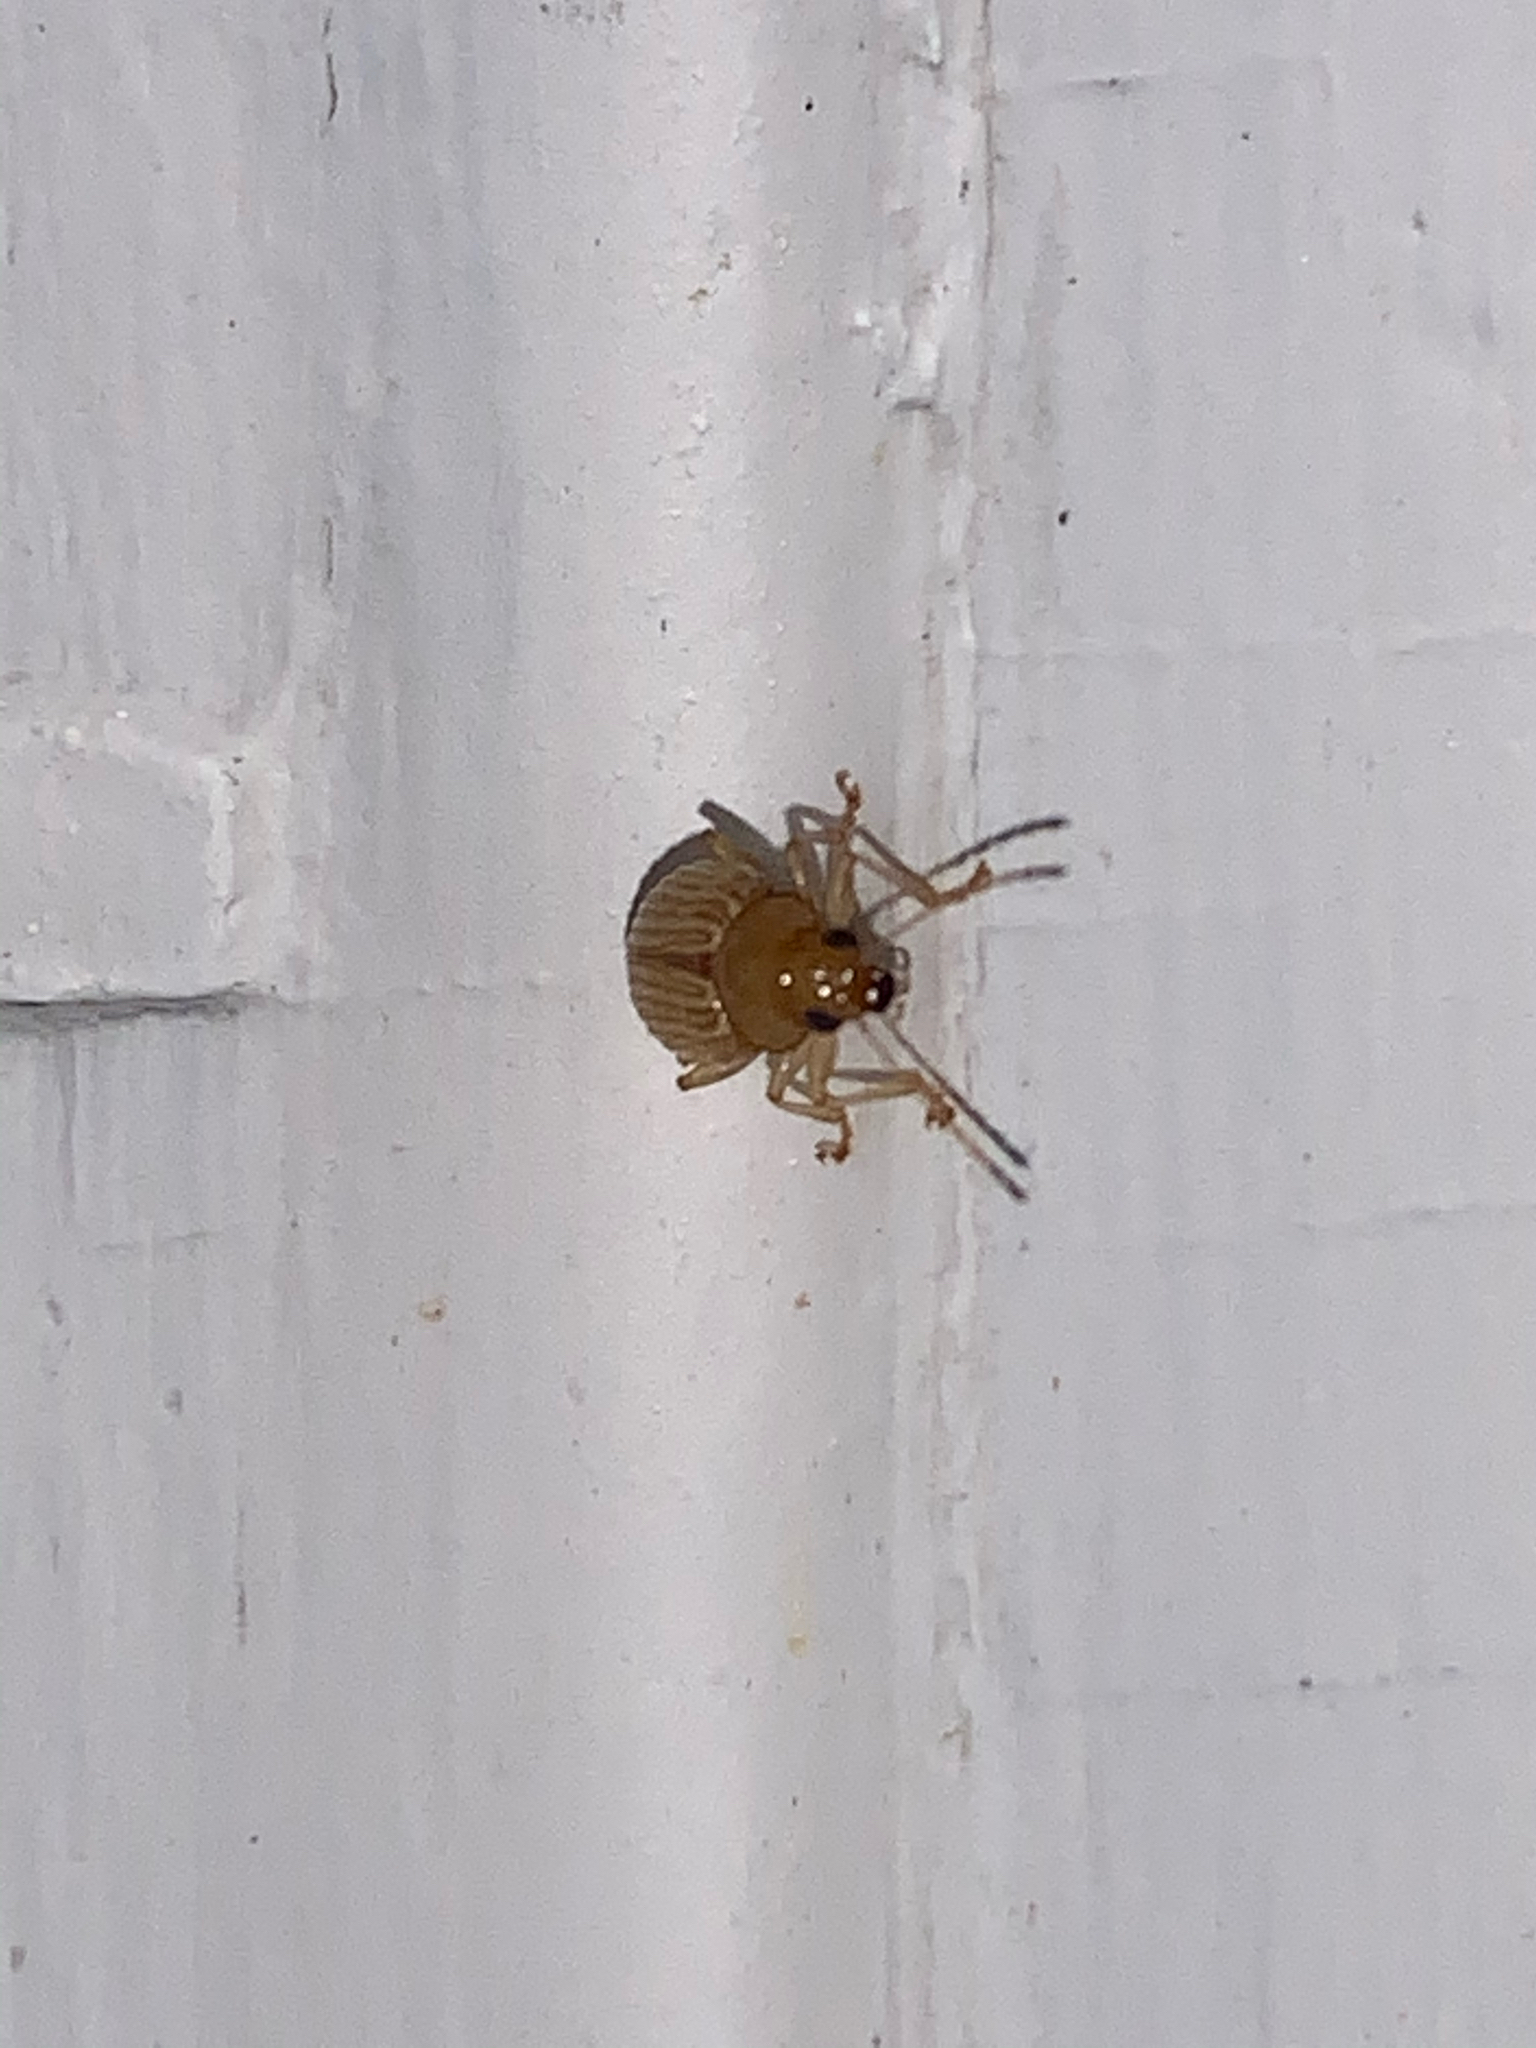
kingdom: Animalia
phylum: Arthropoda
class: Insecta
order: Coleoptera
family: Chrysomelidae
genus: Colaspis
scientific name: Colaspis brunnea
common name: Grape colaspis
